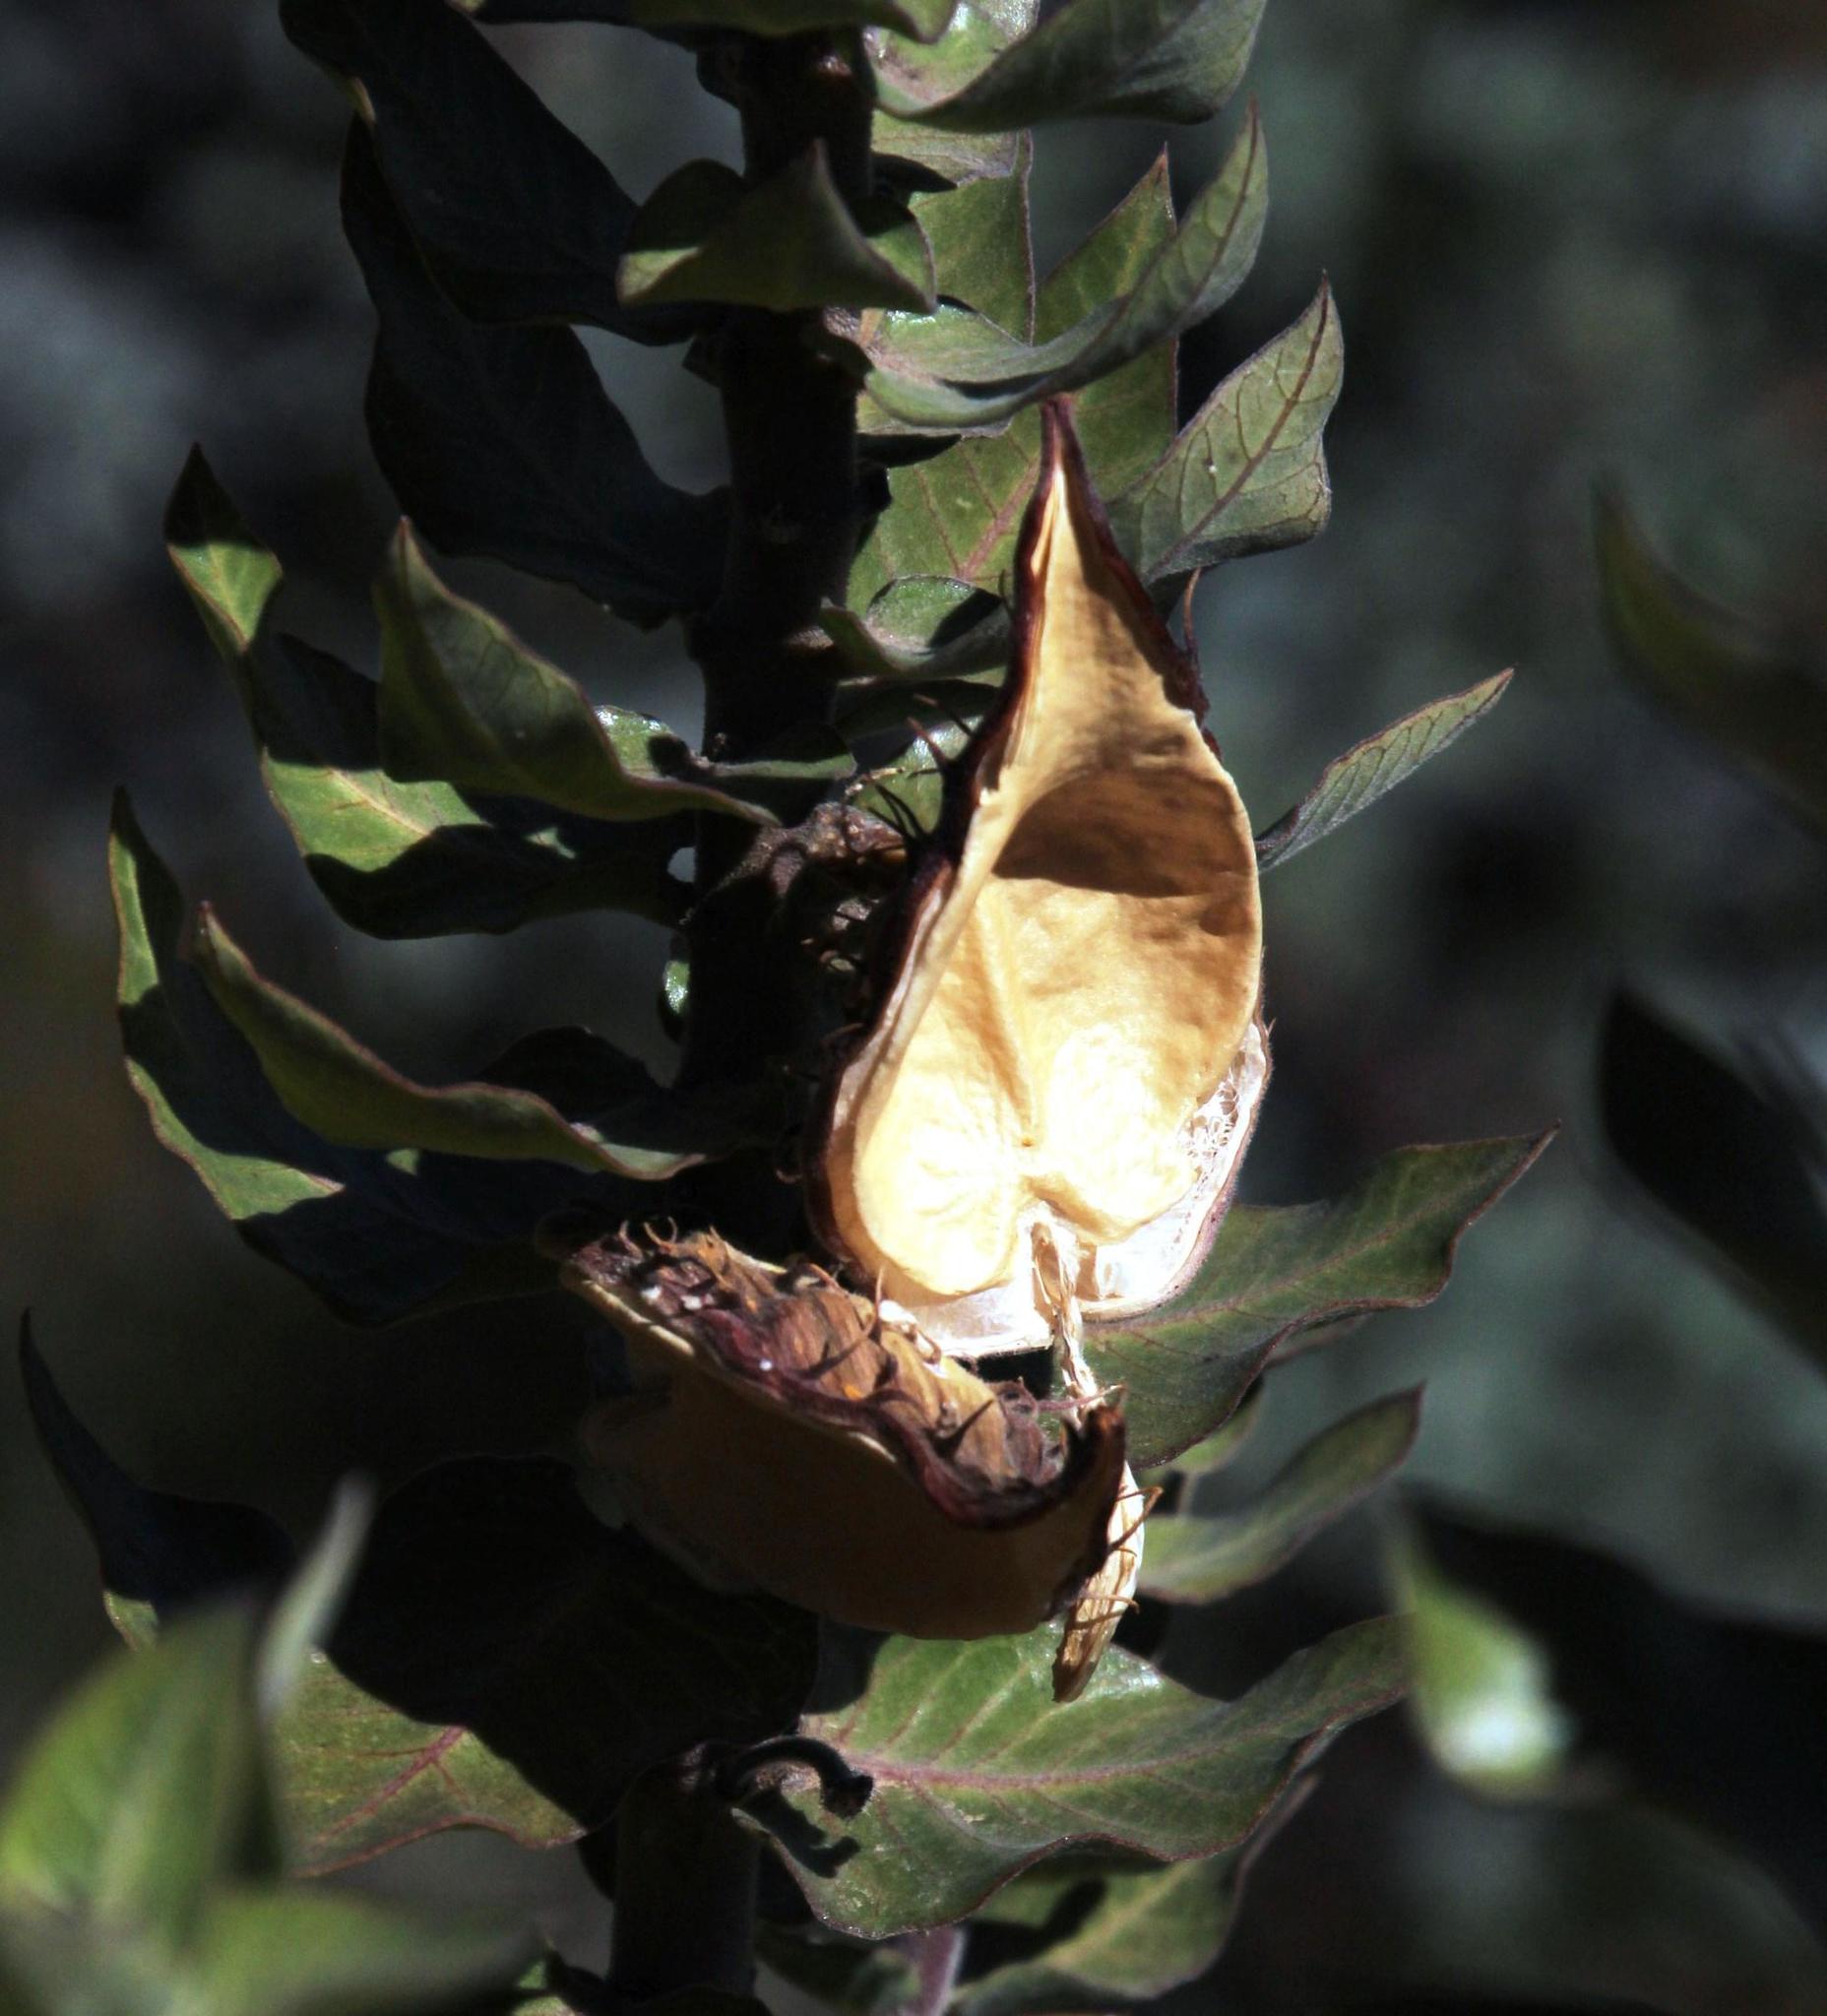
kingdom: Plantae
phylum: Tracheophyta
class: Magnoliopsida
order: Gentianales
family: Apocynaceae
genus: Gomphocarpus
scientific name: Gomphocarpus cancellatus
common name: Wild cotton
